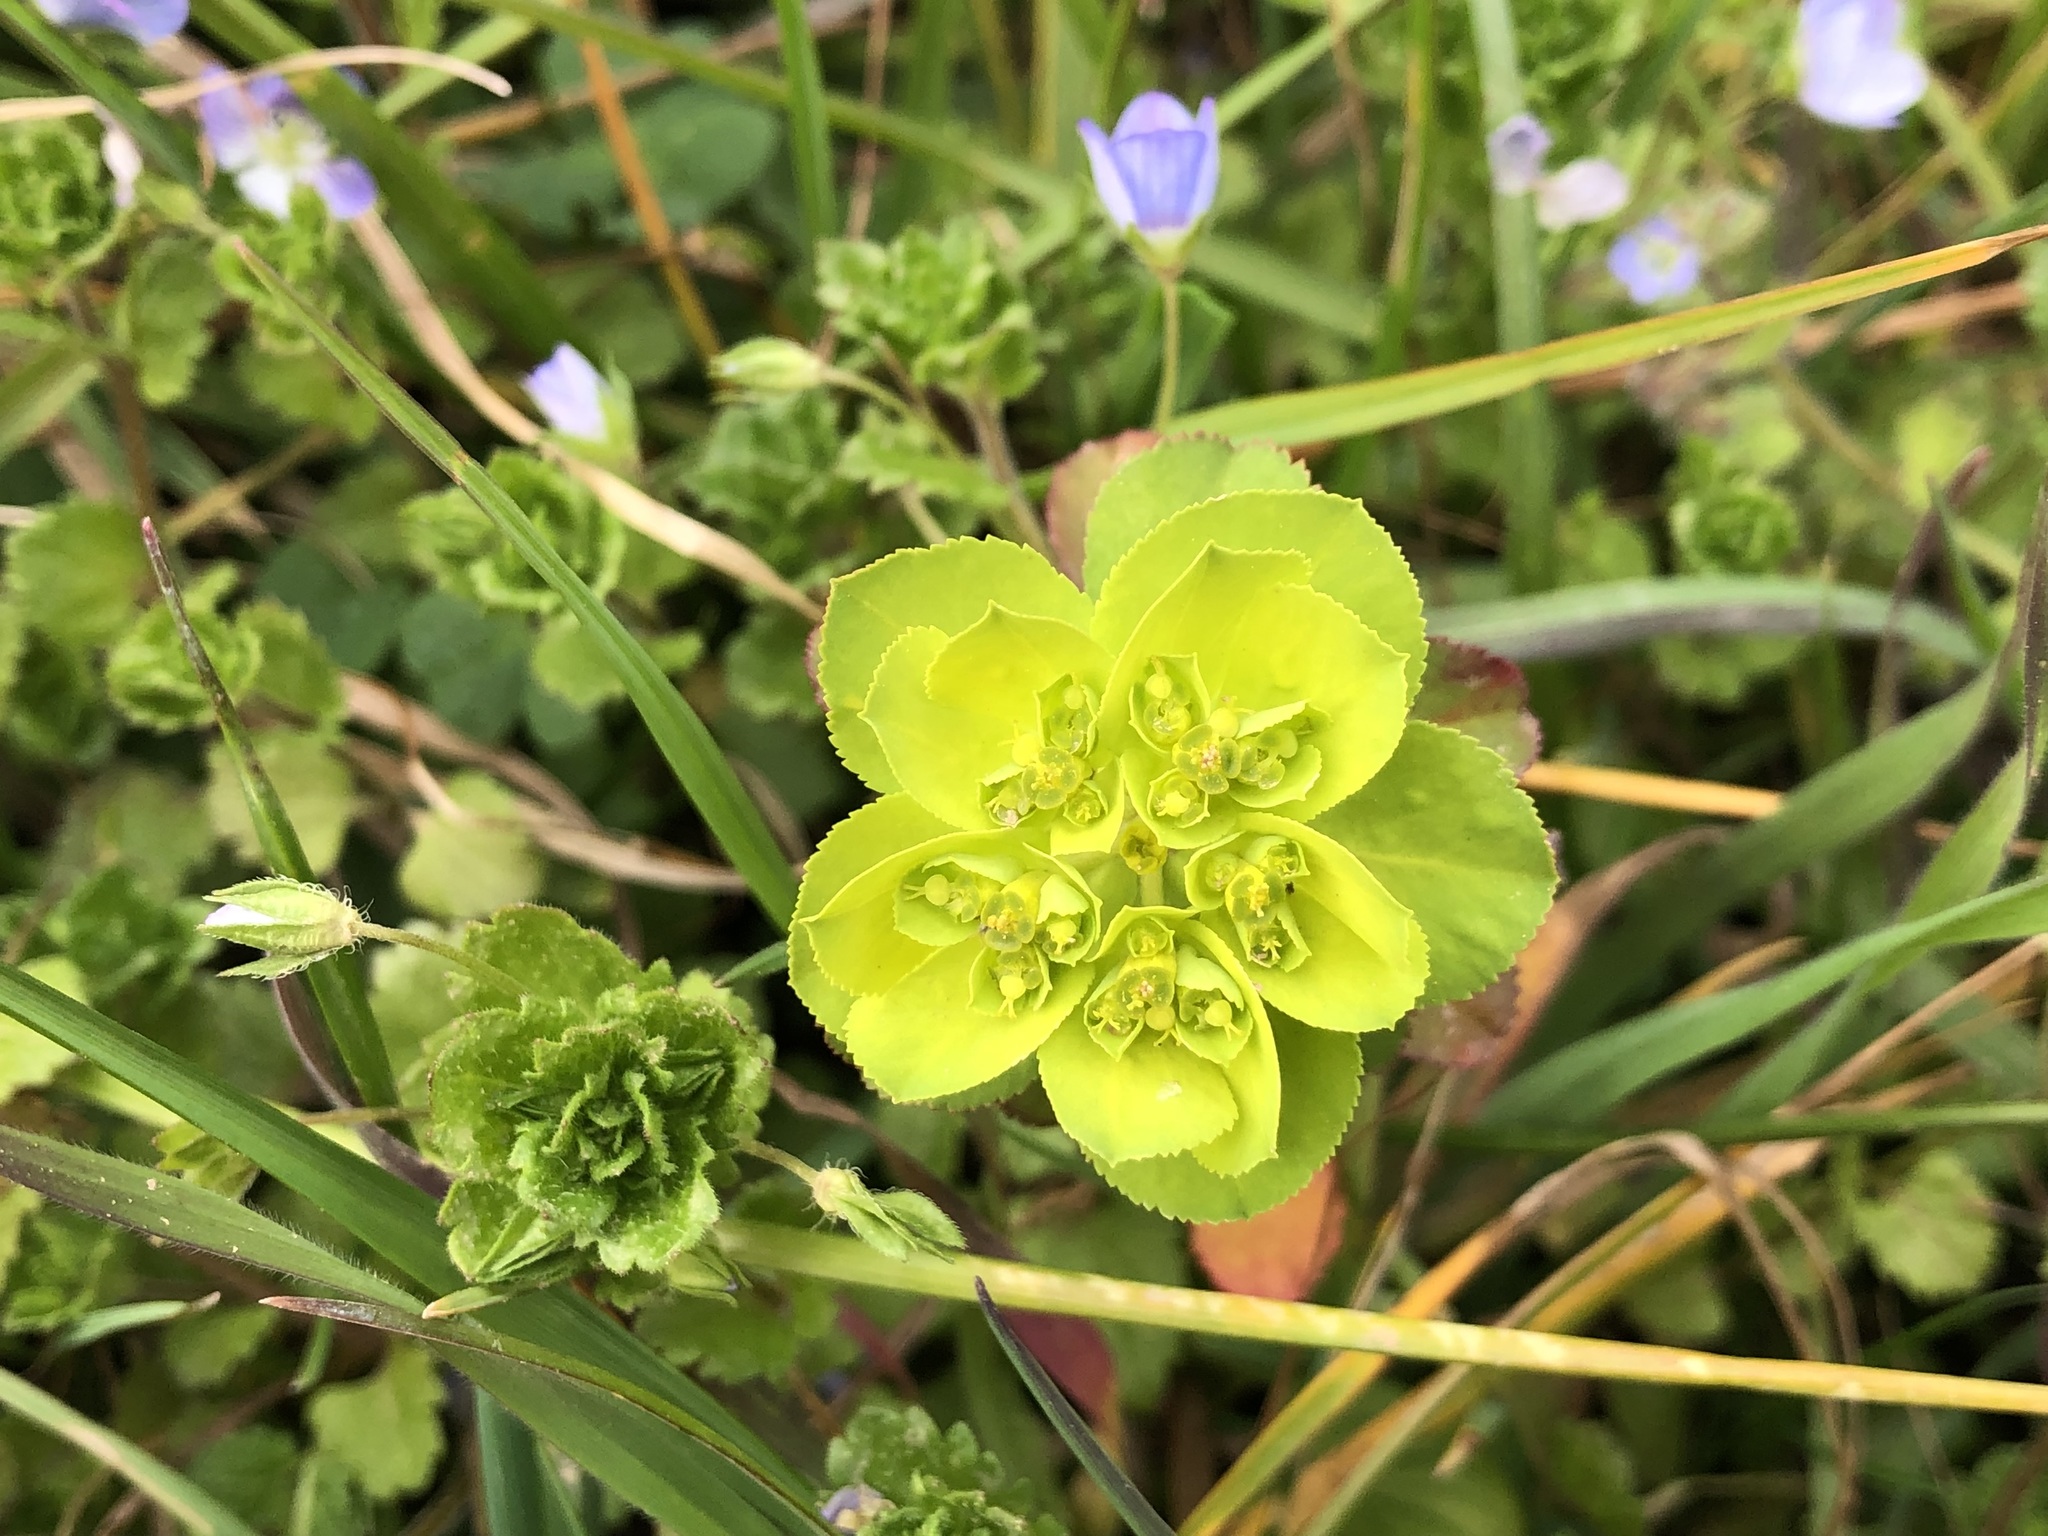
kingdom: Plantae
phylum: Tracheophyta
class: Magnoliopsida
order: Malpighiales
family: Euphorbiaceae
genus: Euphorbia
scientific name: Euphorbia helioscopia
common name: Sun spurge
